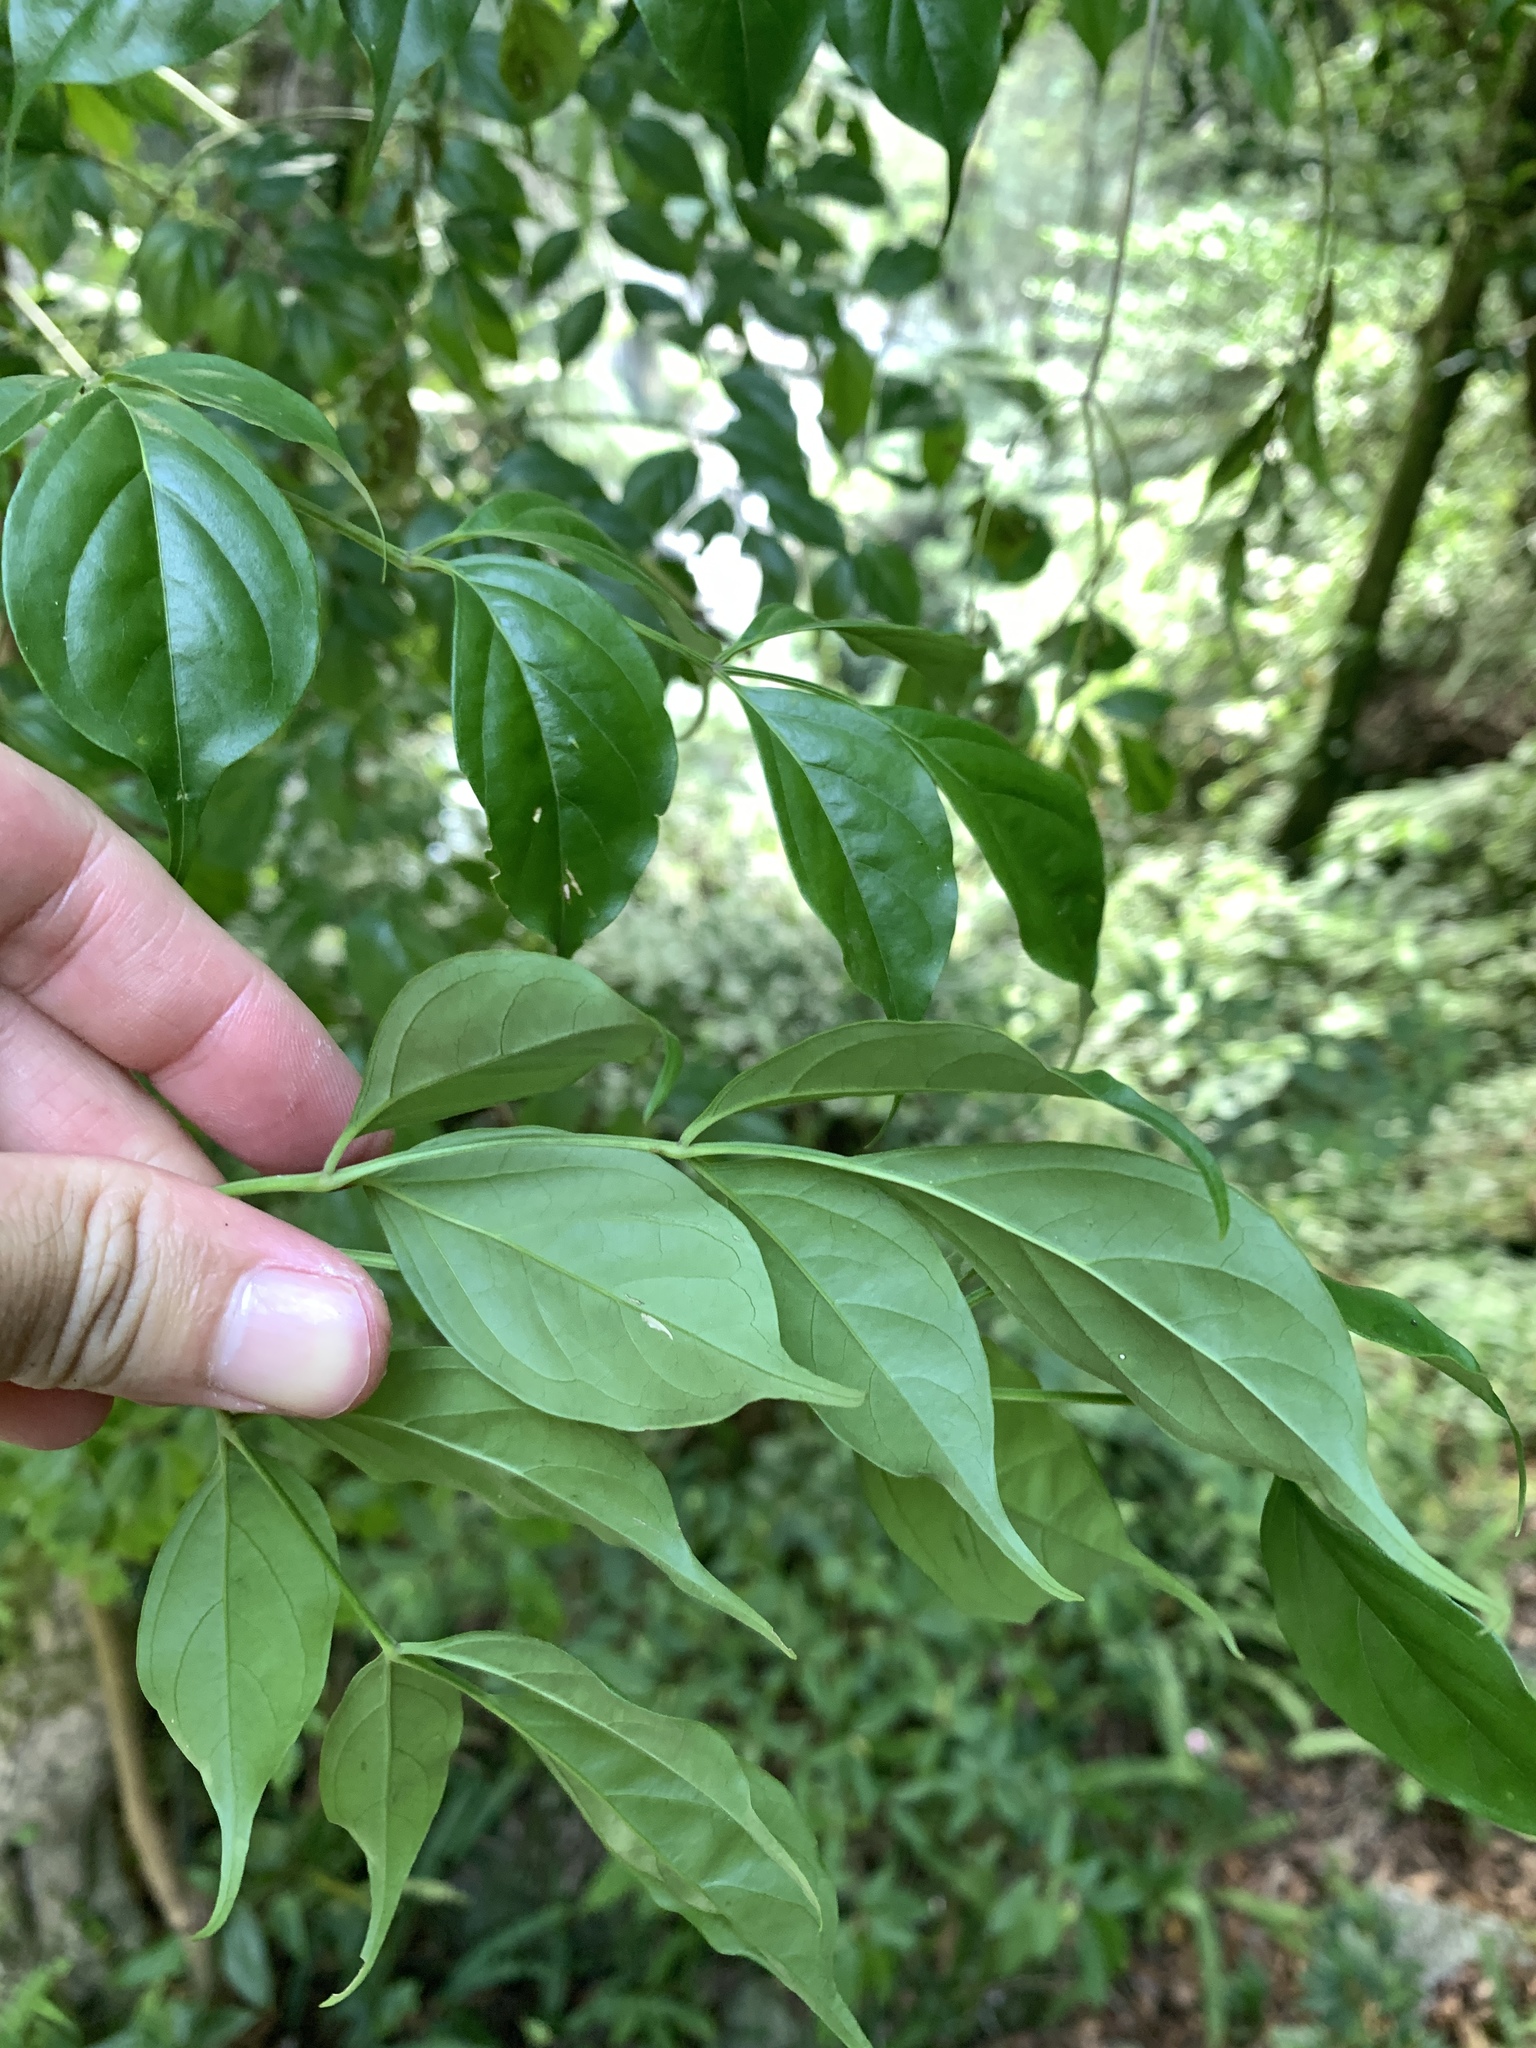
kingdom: Plantae
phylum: Tracheophyta
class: Magnoliopsida
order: Lamiales
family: Bignoniaceae
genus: Radermachera
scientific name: Radermachera sinica
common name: China doll plant
